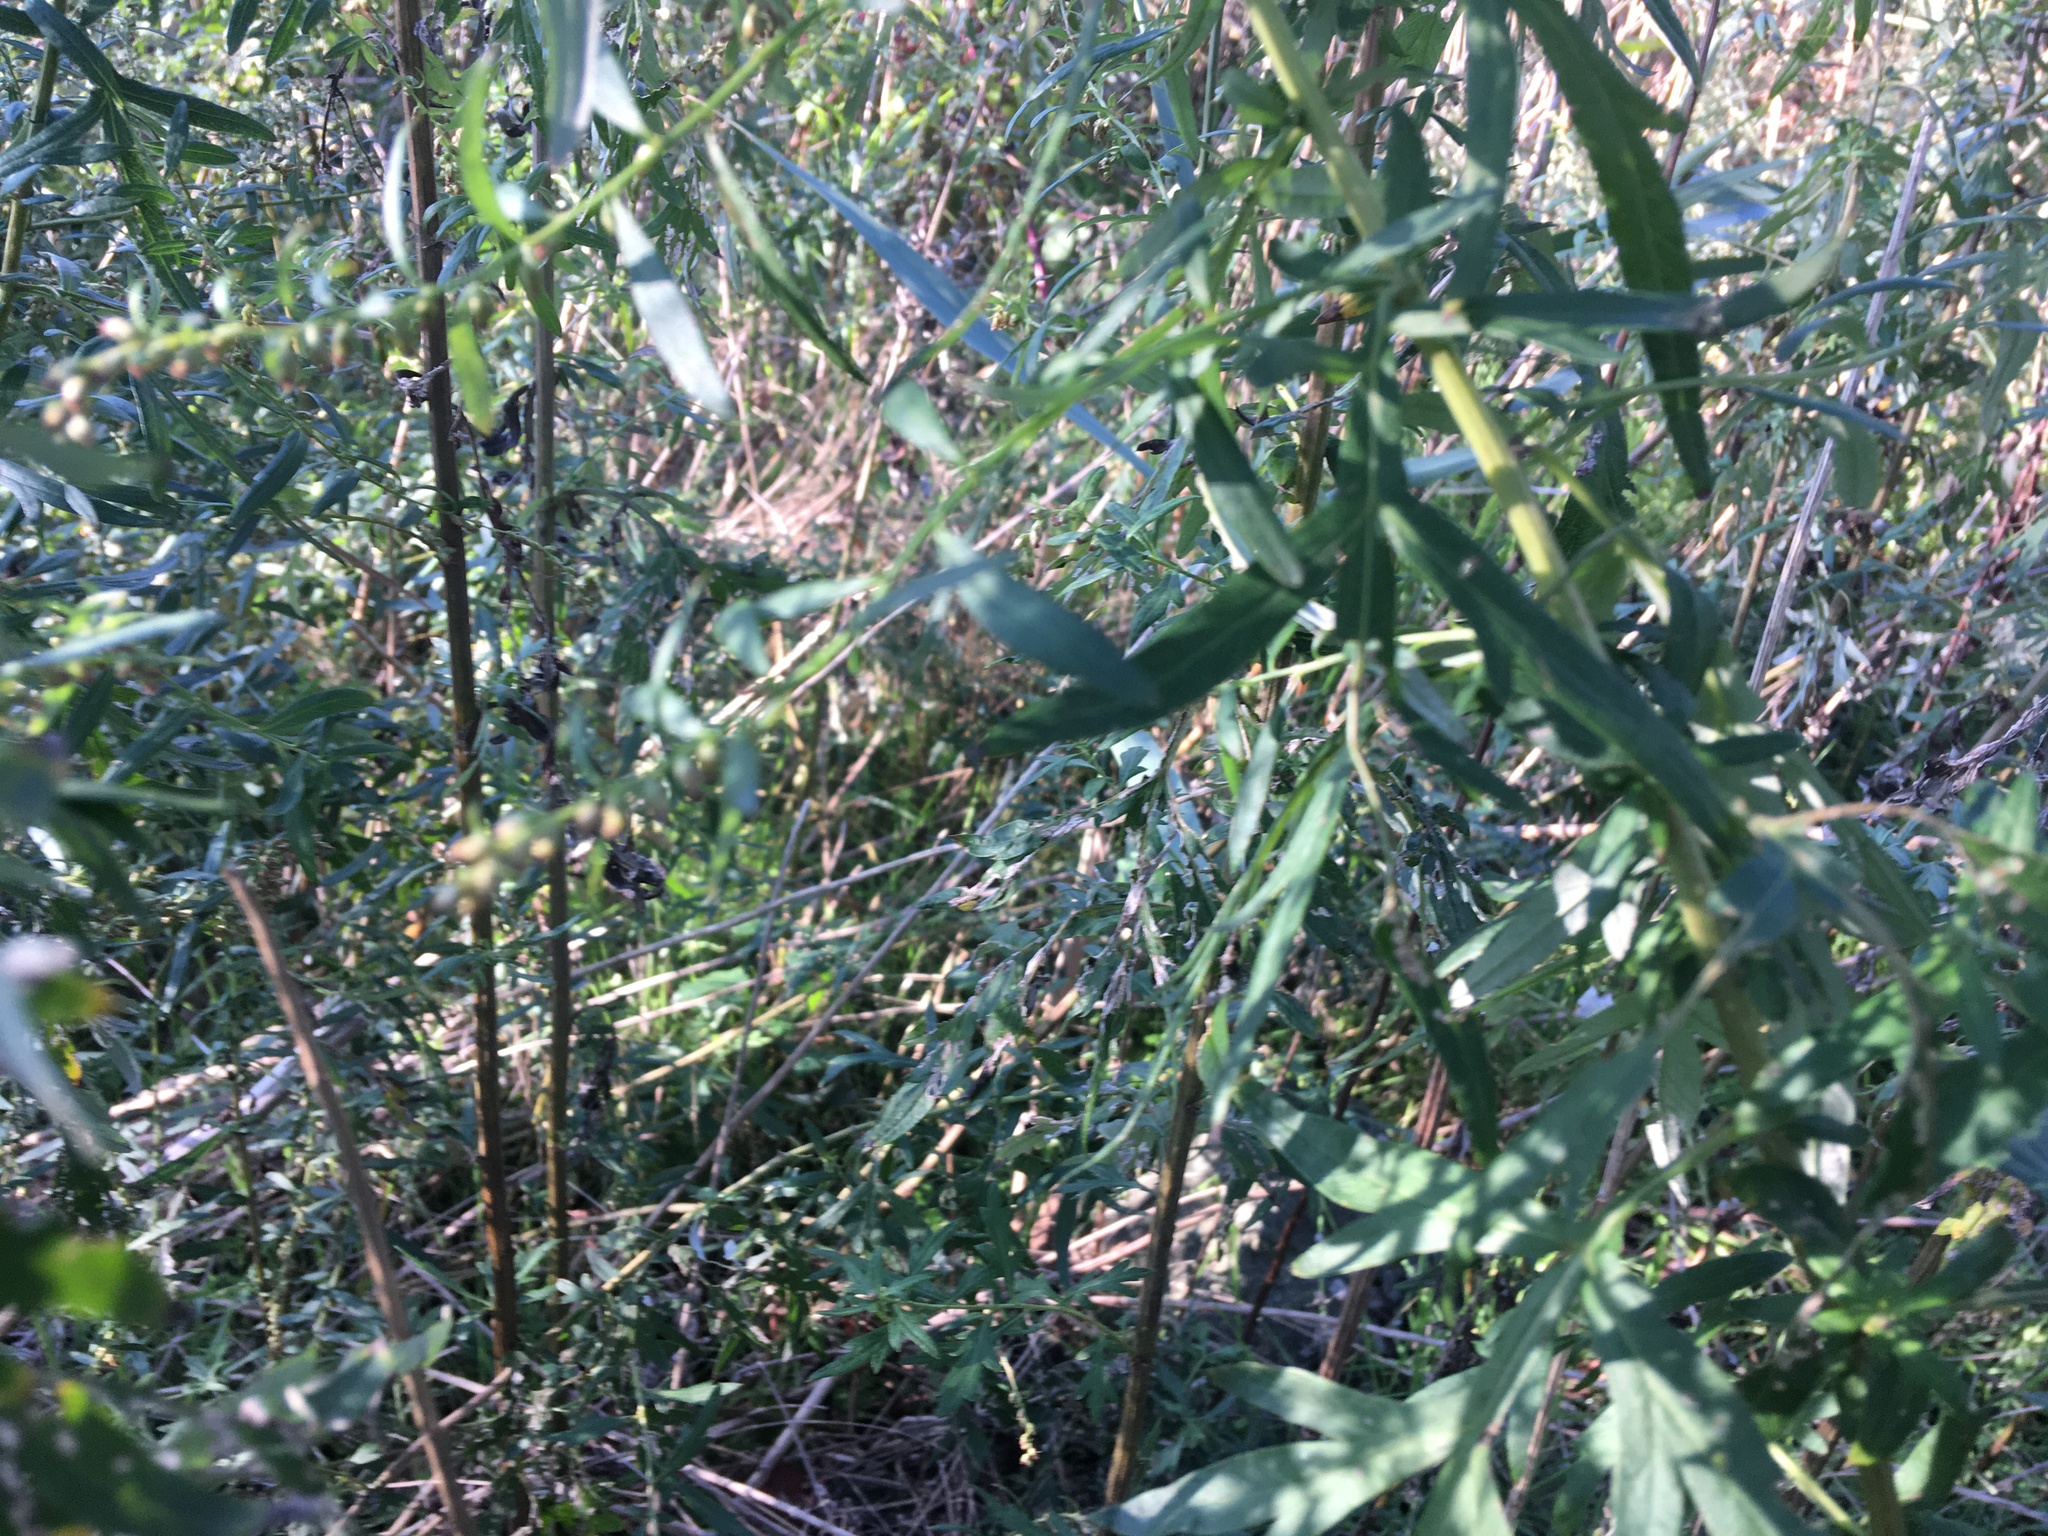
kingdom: Plantae
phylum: Tracheophyta
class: Magnoliopsida
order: Asterales
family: Asteraceae
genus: Artemisia
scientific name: Artemisia vulgaris
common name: Mugwort
